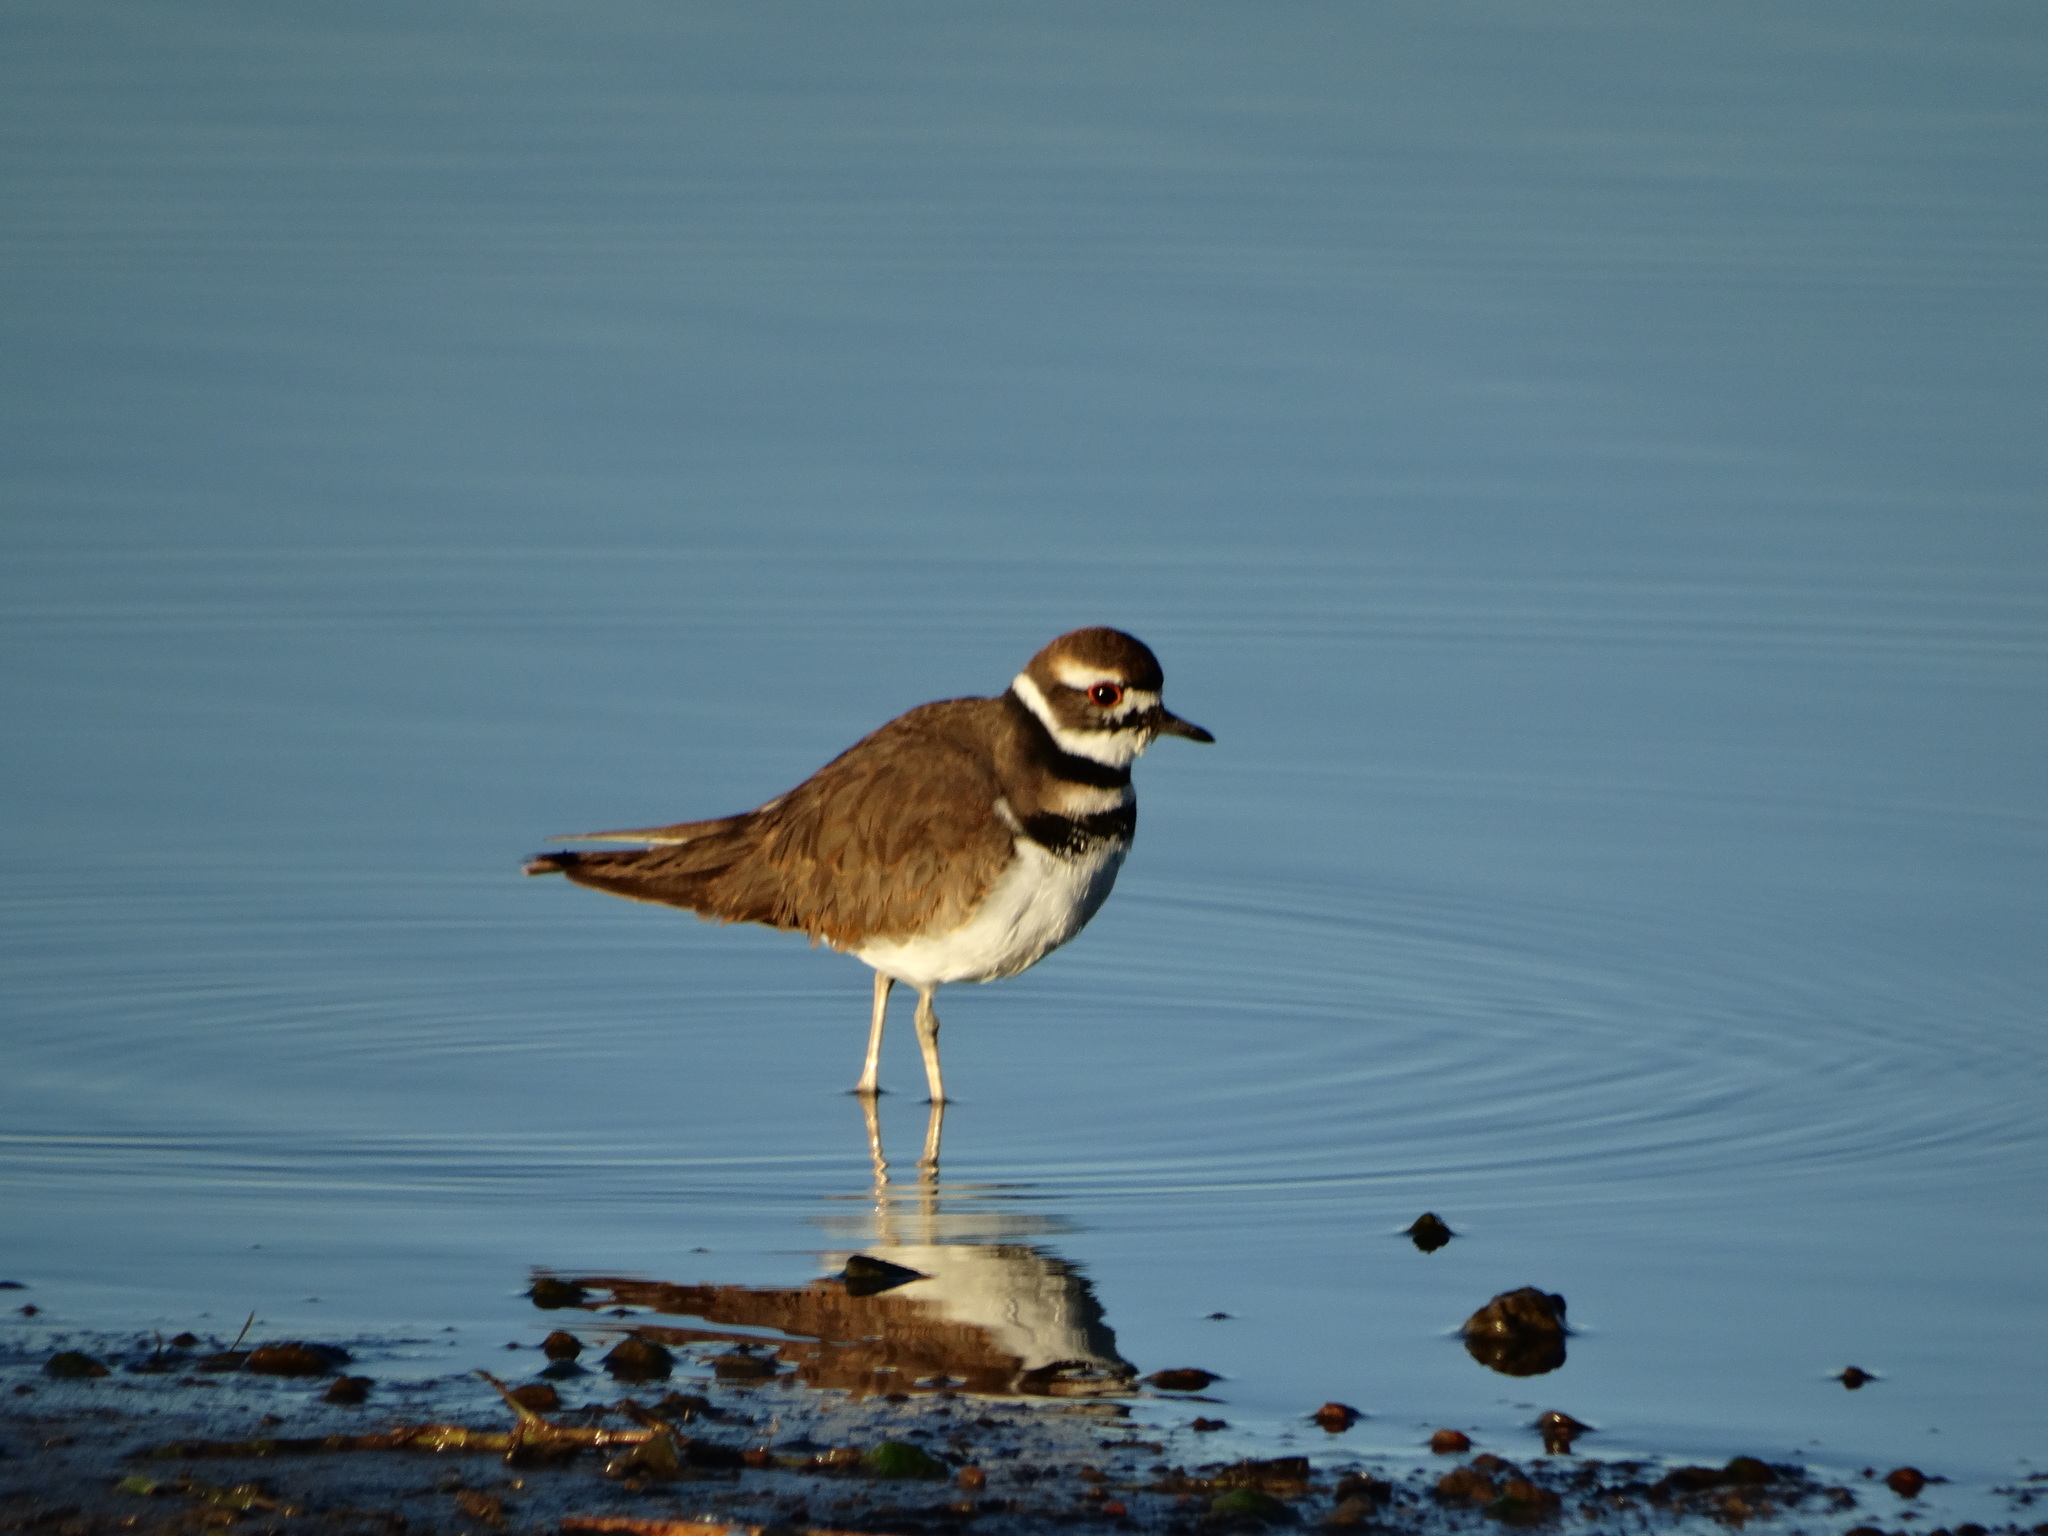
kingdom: Animalia
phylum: Chordata
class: Aves
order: Charadriiformes
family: Charadriidae
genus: Charadrius
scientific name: Charadrius vociferus
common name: Killdeer
